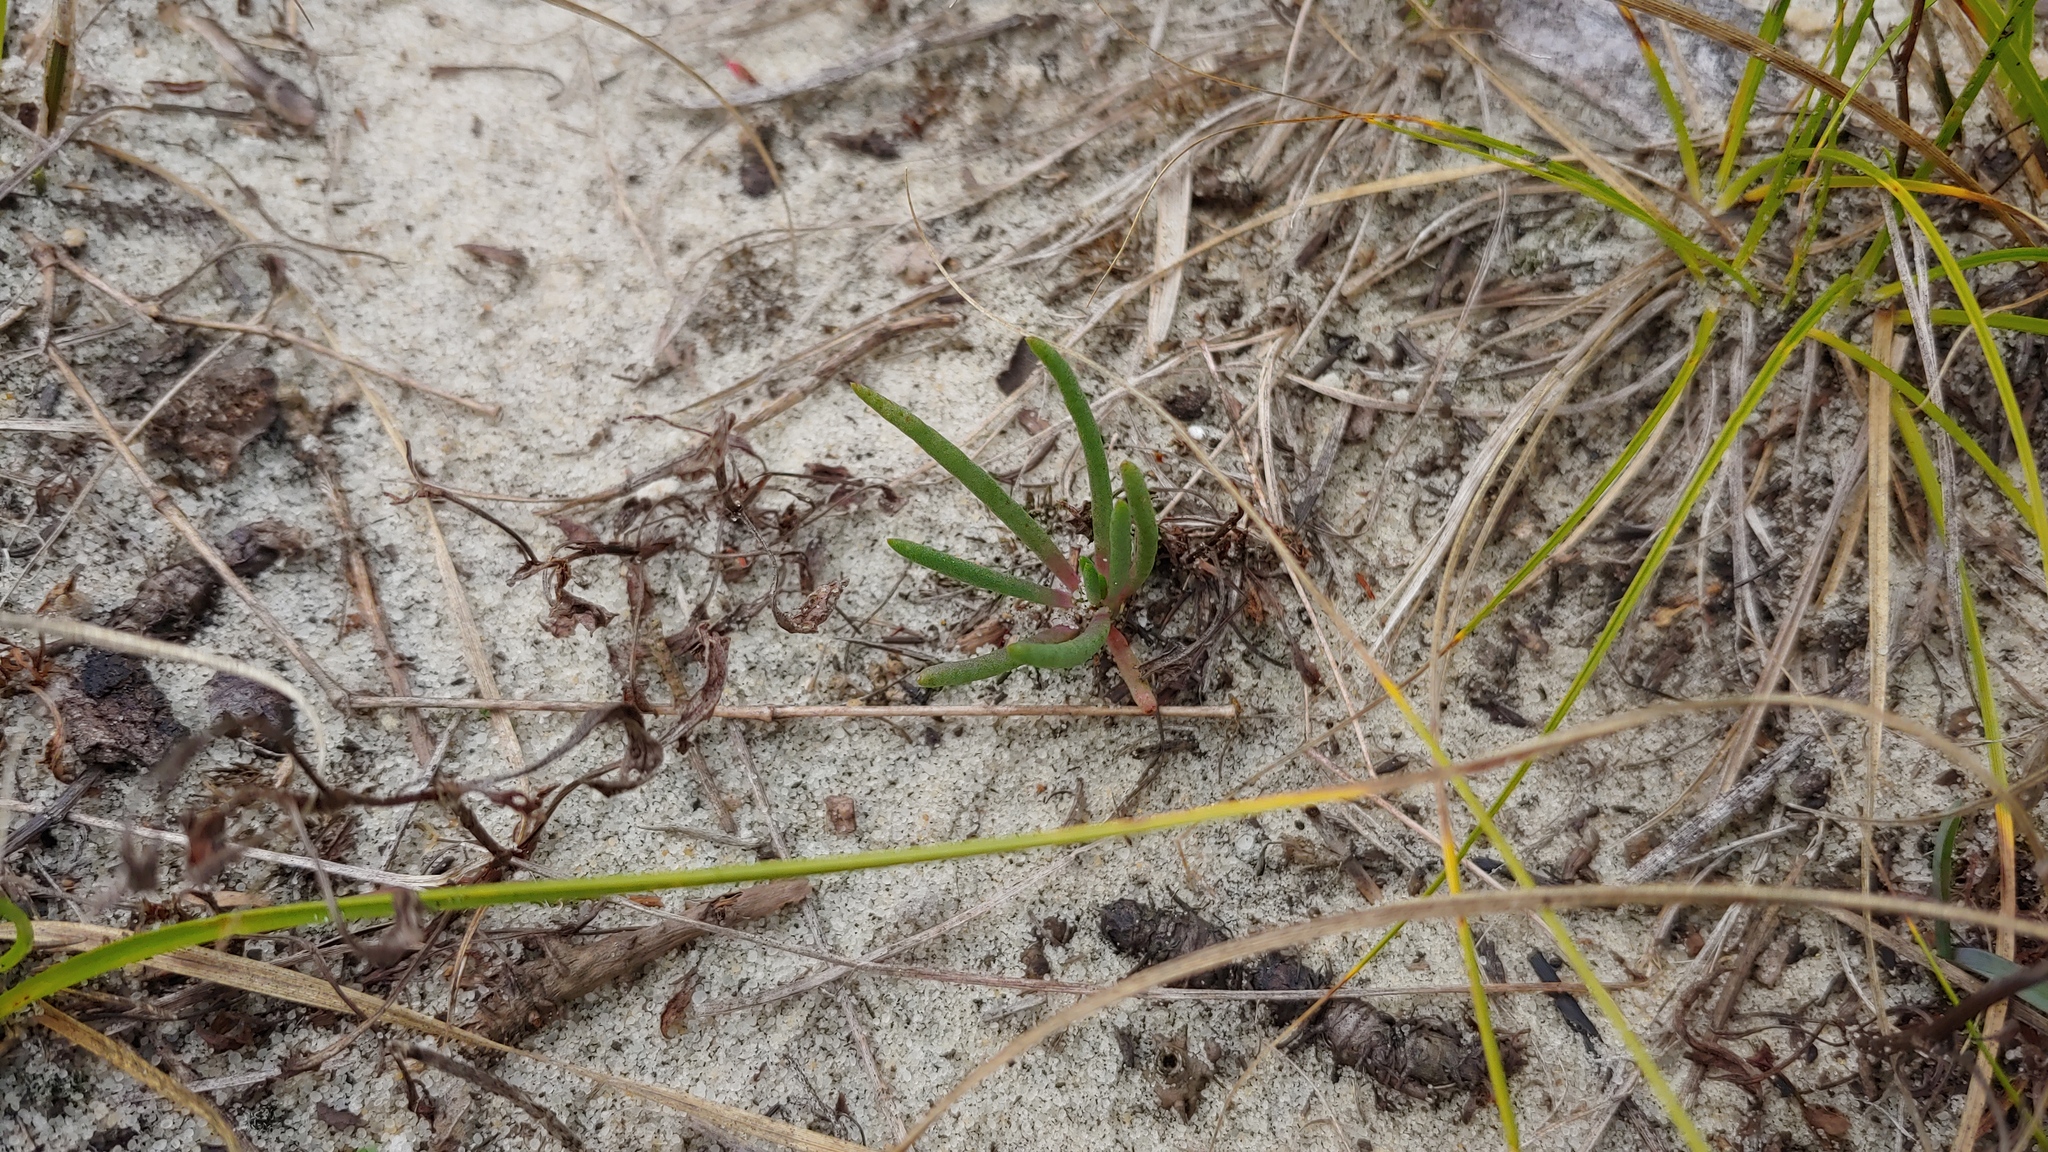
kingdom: Plantae
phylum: Tracheophyta
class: Magnoliopsida
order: Caryophyllales
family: Montiaceae
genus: Phemeranthus
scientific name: Phemeranthus rugospermus
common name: Prairie fameflower
